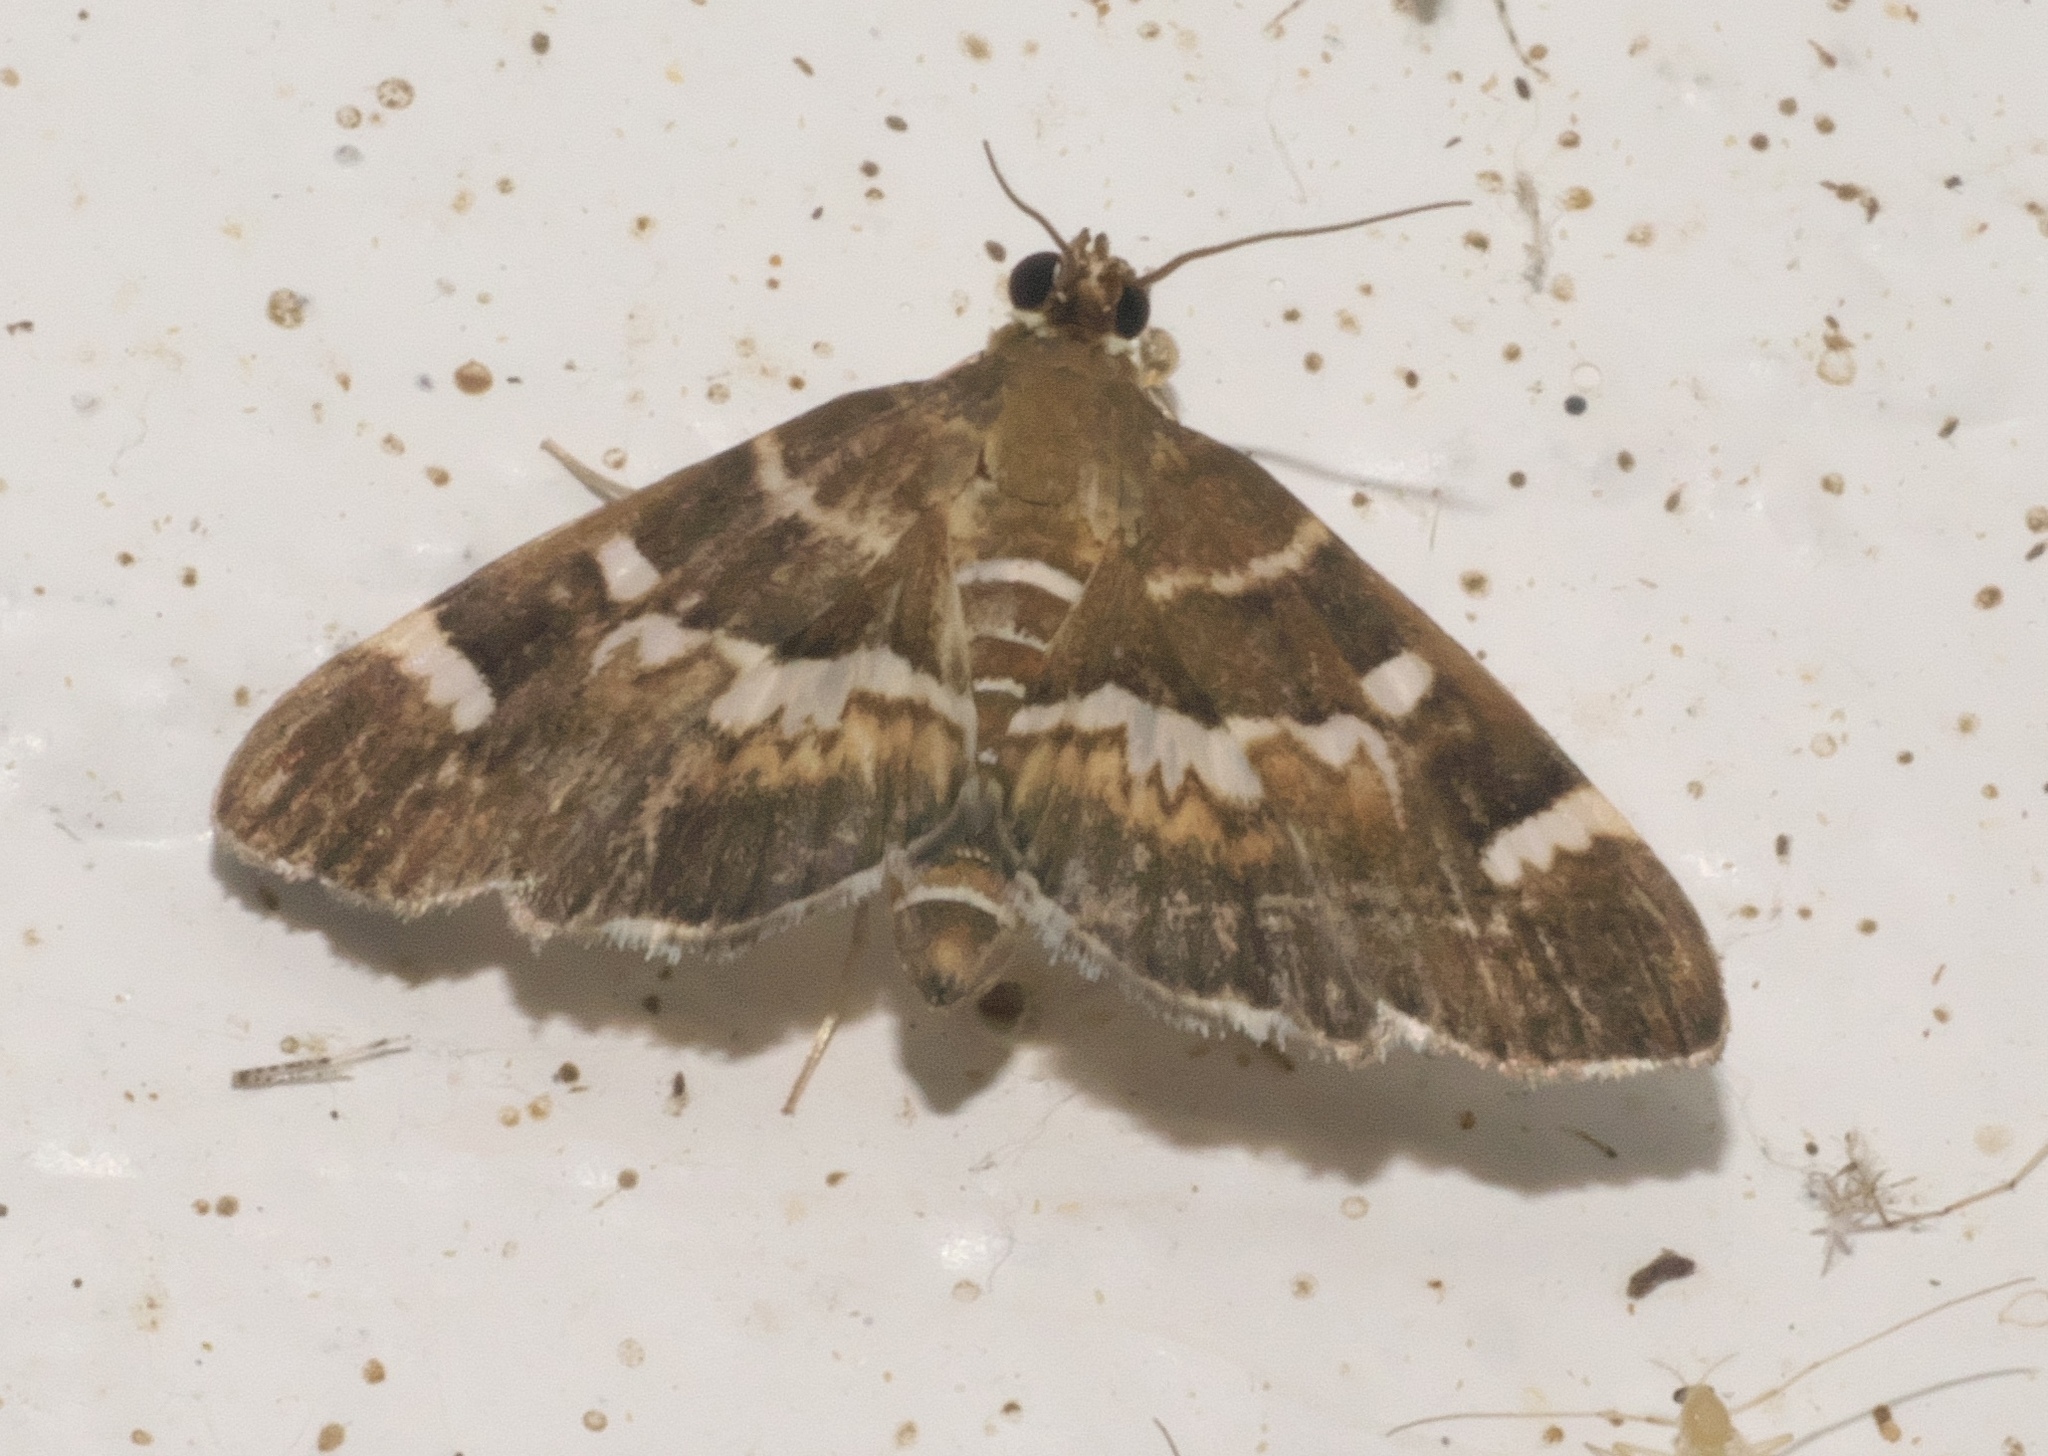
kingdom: Animalia
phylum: Arthropoda
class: Insecta
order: Lepidoptera
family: Crambidae
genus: Hymenia
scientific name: Hymenia perspectalis
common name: Spotted beet webworm
